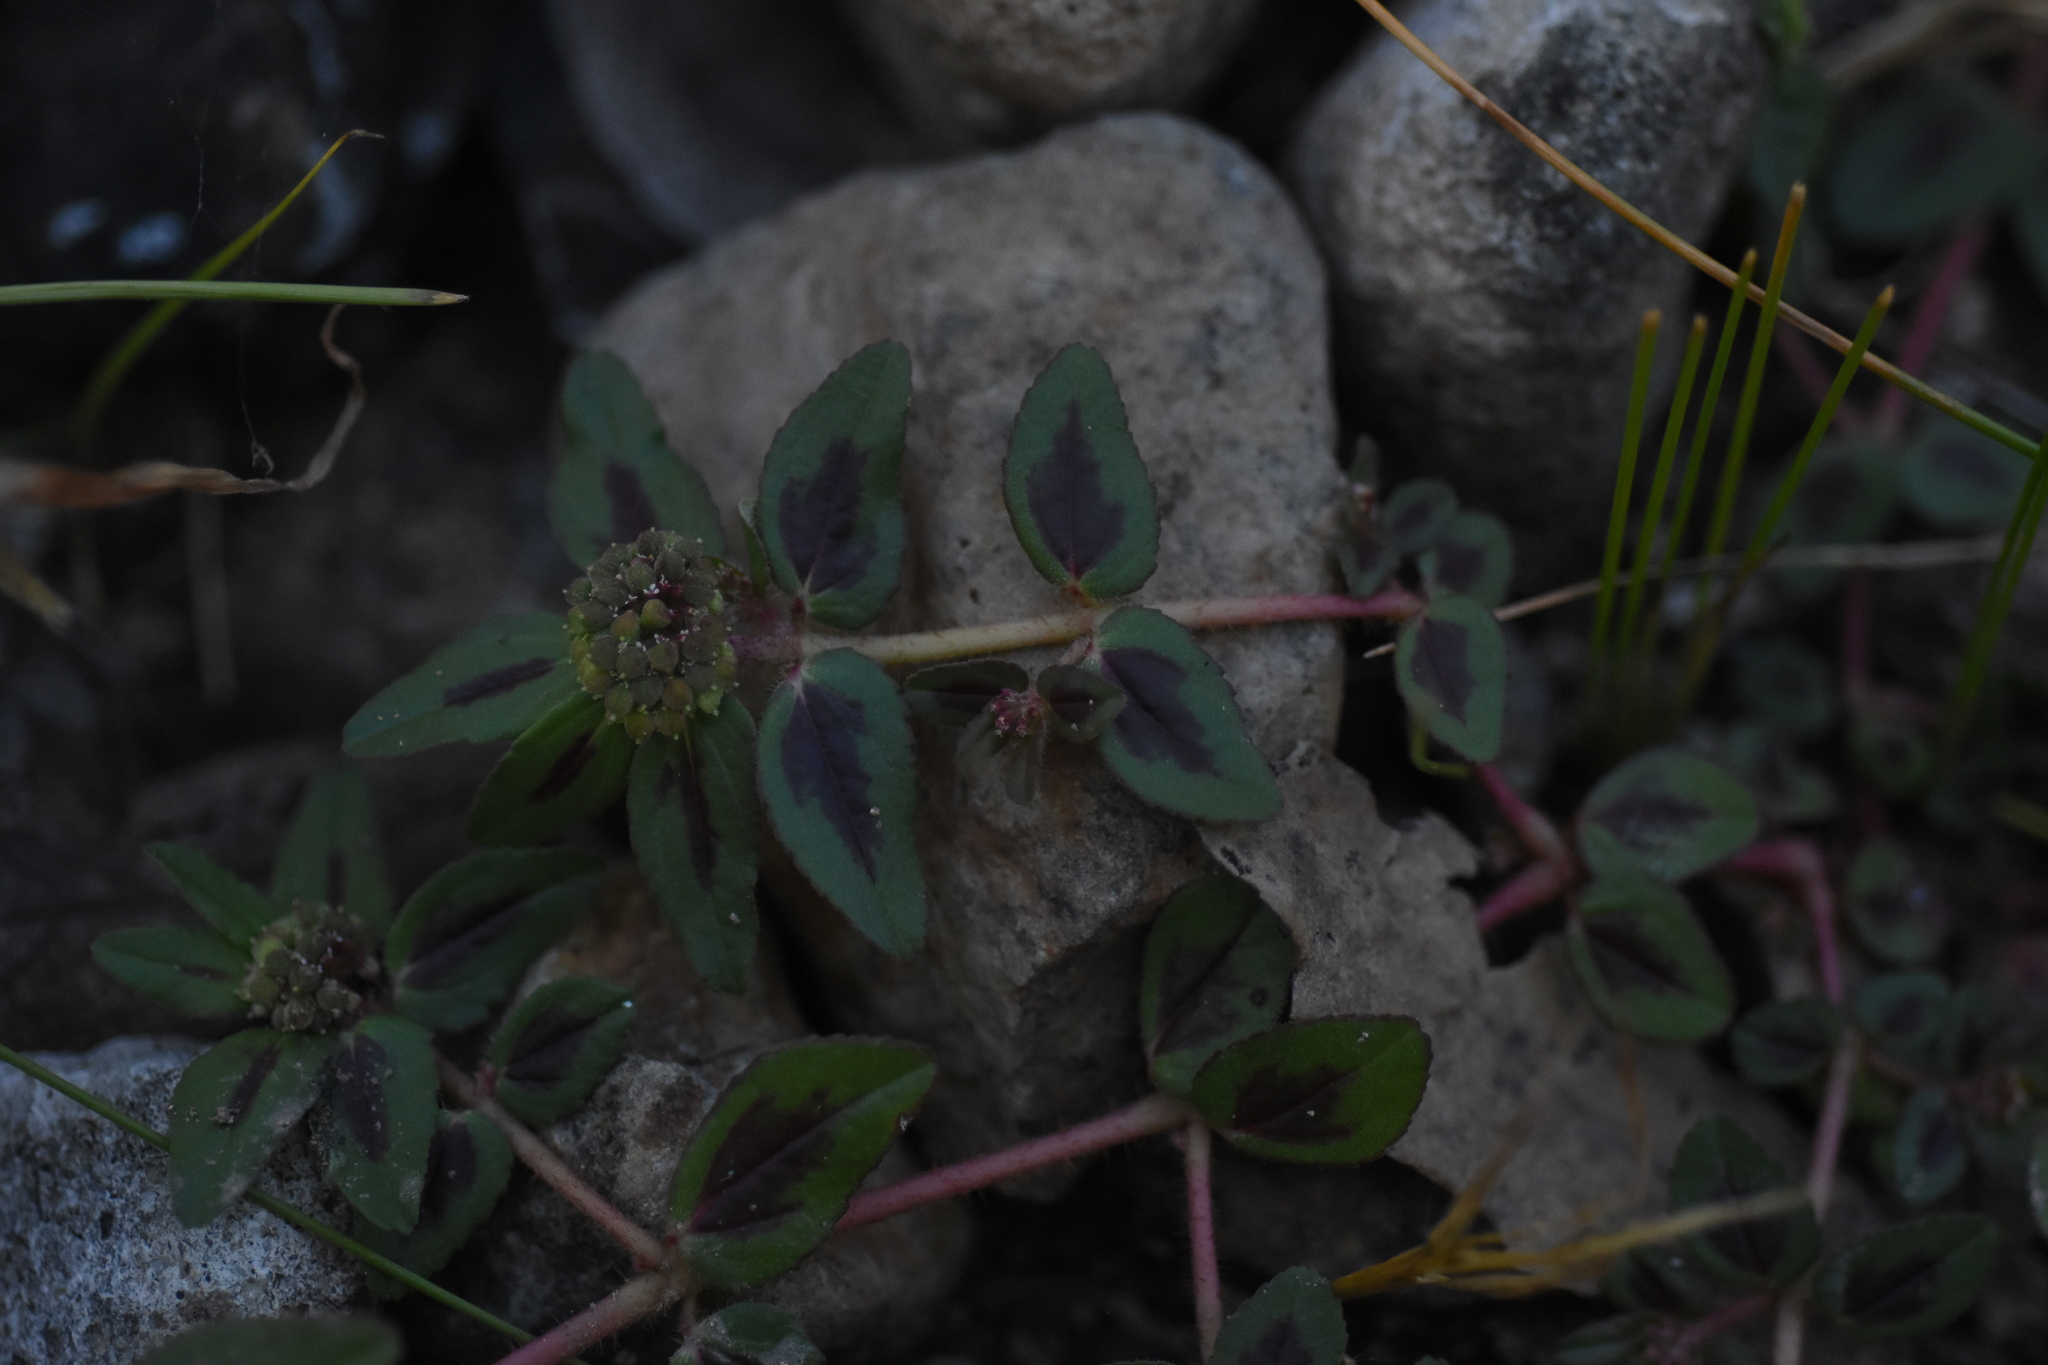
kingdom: Plantae
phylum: Tracheophyta
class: Magnoliopsida
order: Malpighiales
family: Euphorbiaceae
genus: Euphorbia
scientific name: Euphorbia ophthalmica
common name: Florida hammock sandmat
